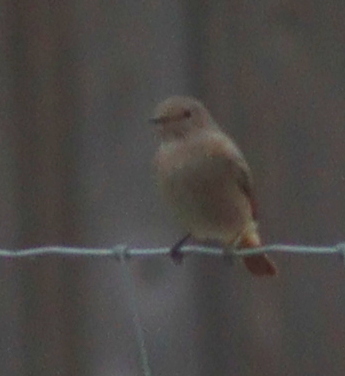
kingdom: Animalia
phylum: Chordata
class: Aves
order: Passeriformes
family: Muscicapidae
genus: Phoenicurus
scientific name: Phoenicurus phoenicurus
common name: Common redstart
